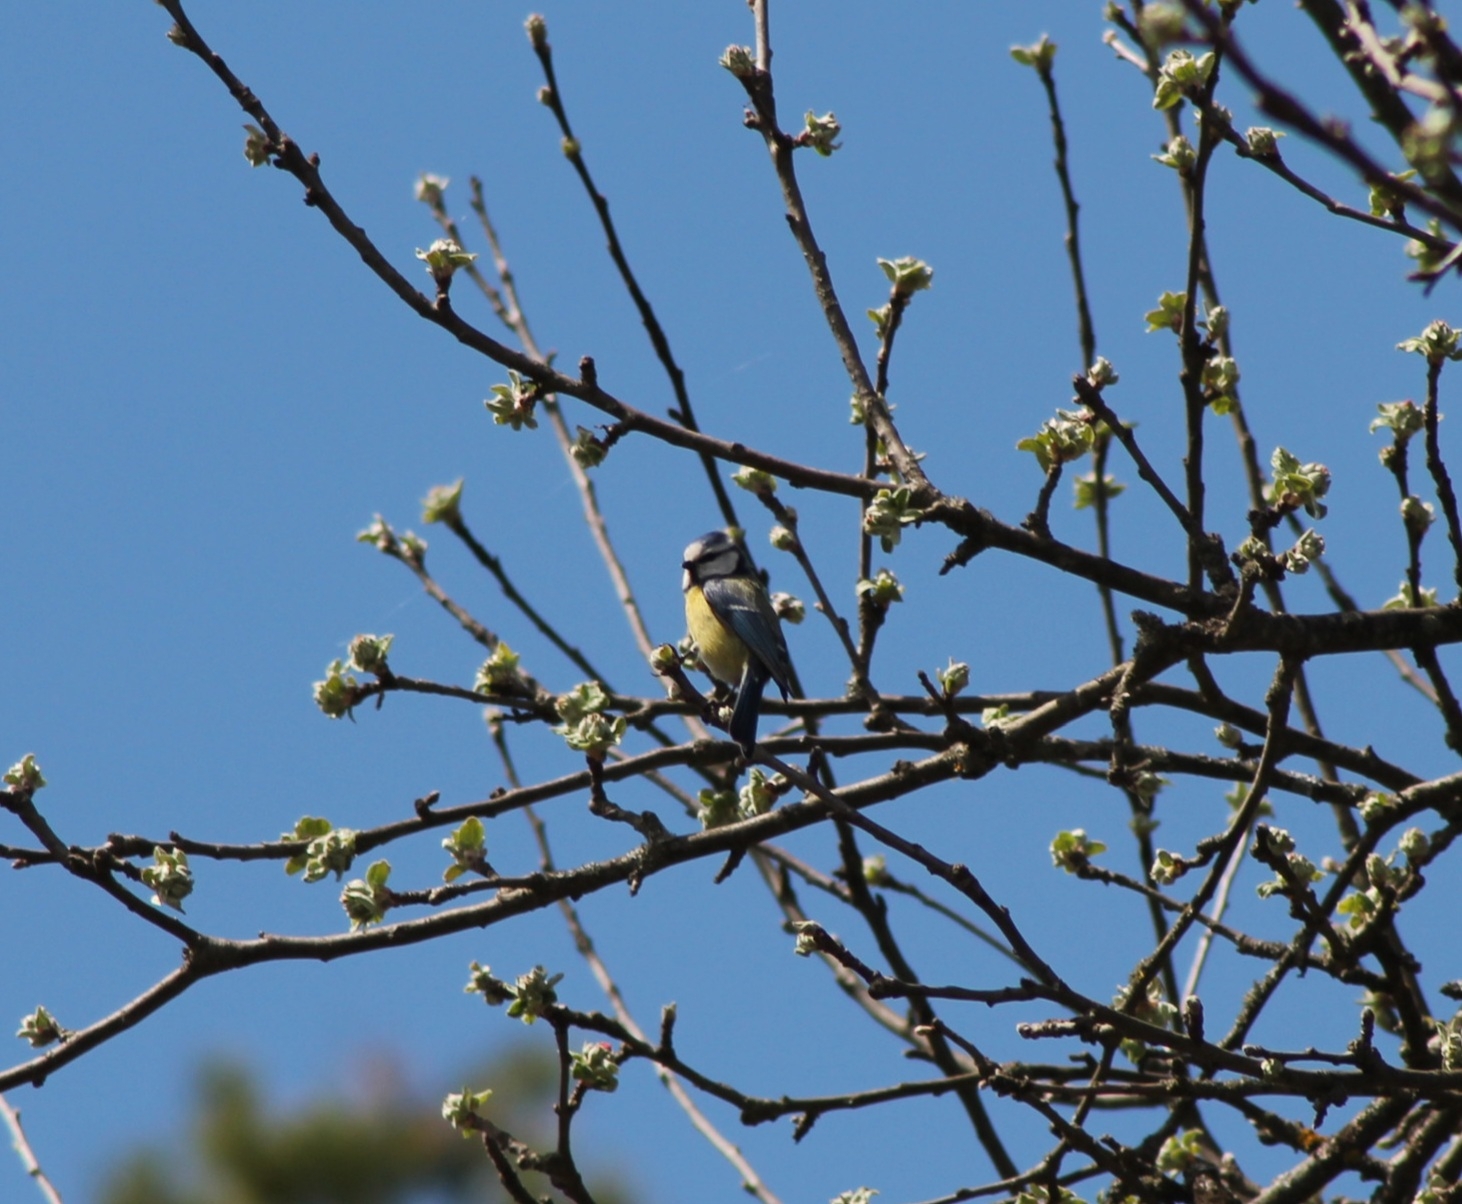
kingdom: Animalia
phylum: Chordata
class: Aves
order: Passeriformes
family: Paridae
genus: Cyanistes
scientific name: Cyanistes caeruleus
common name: Eurasian blue tit
